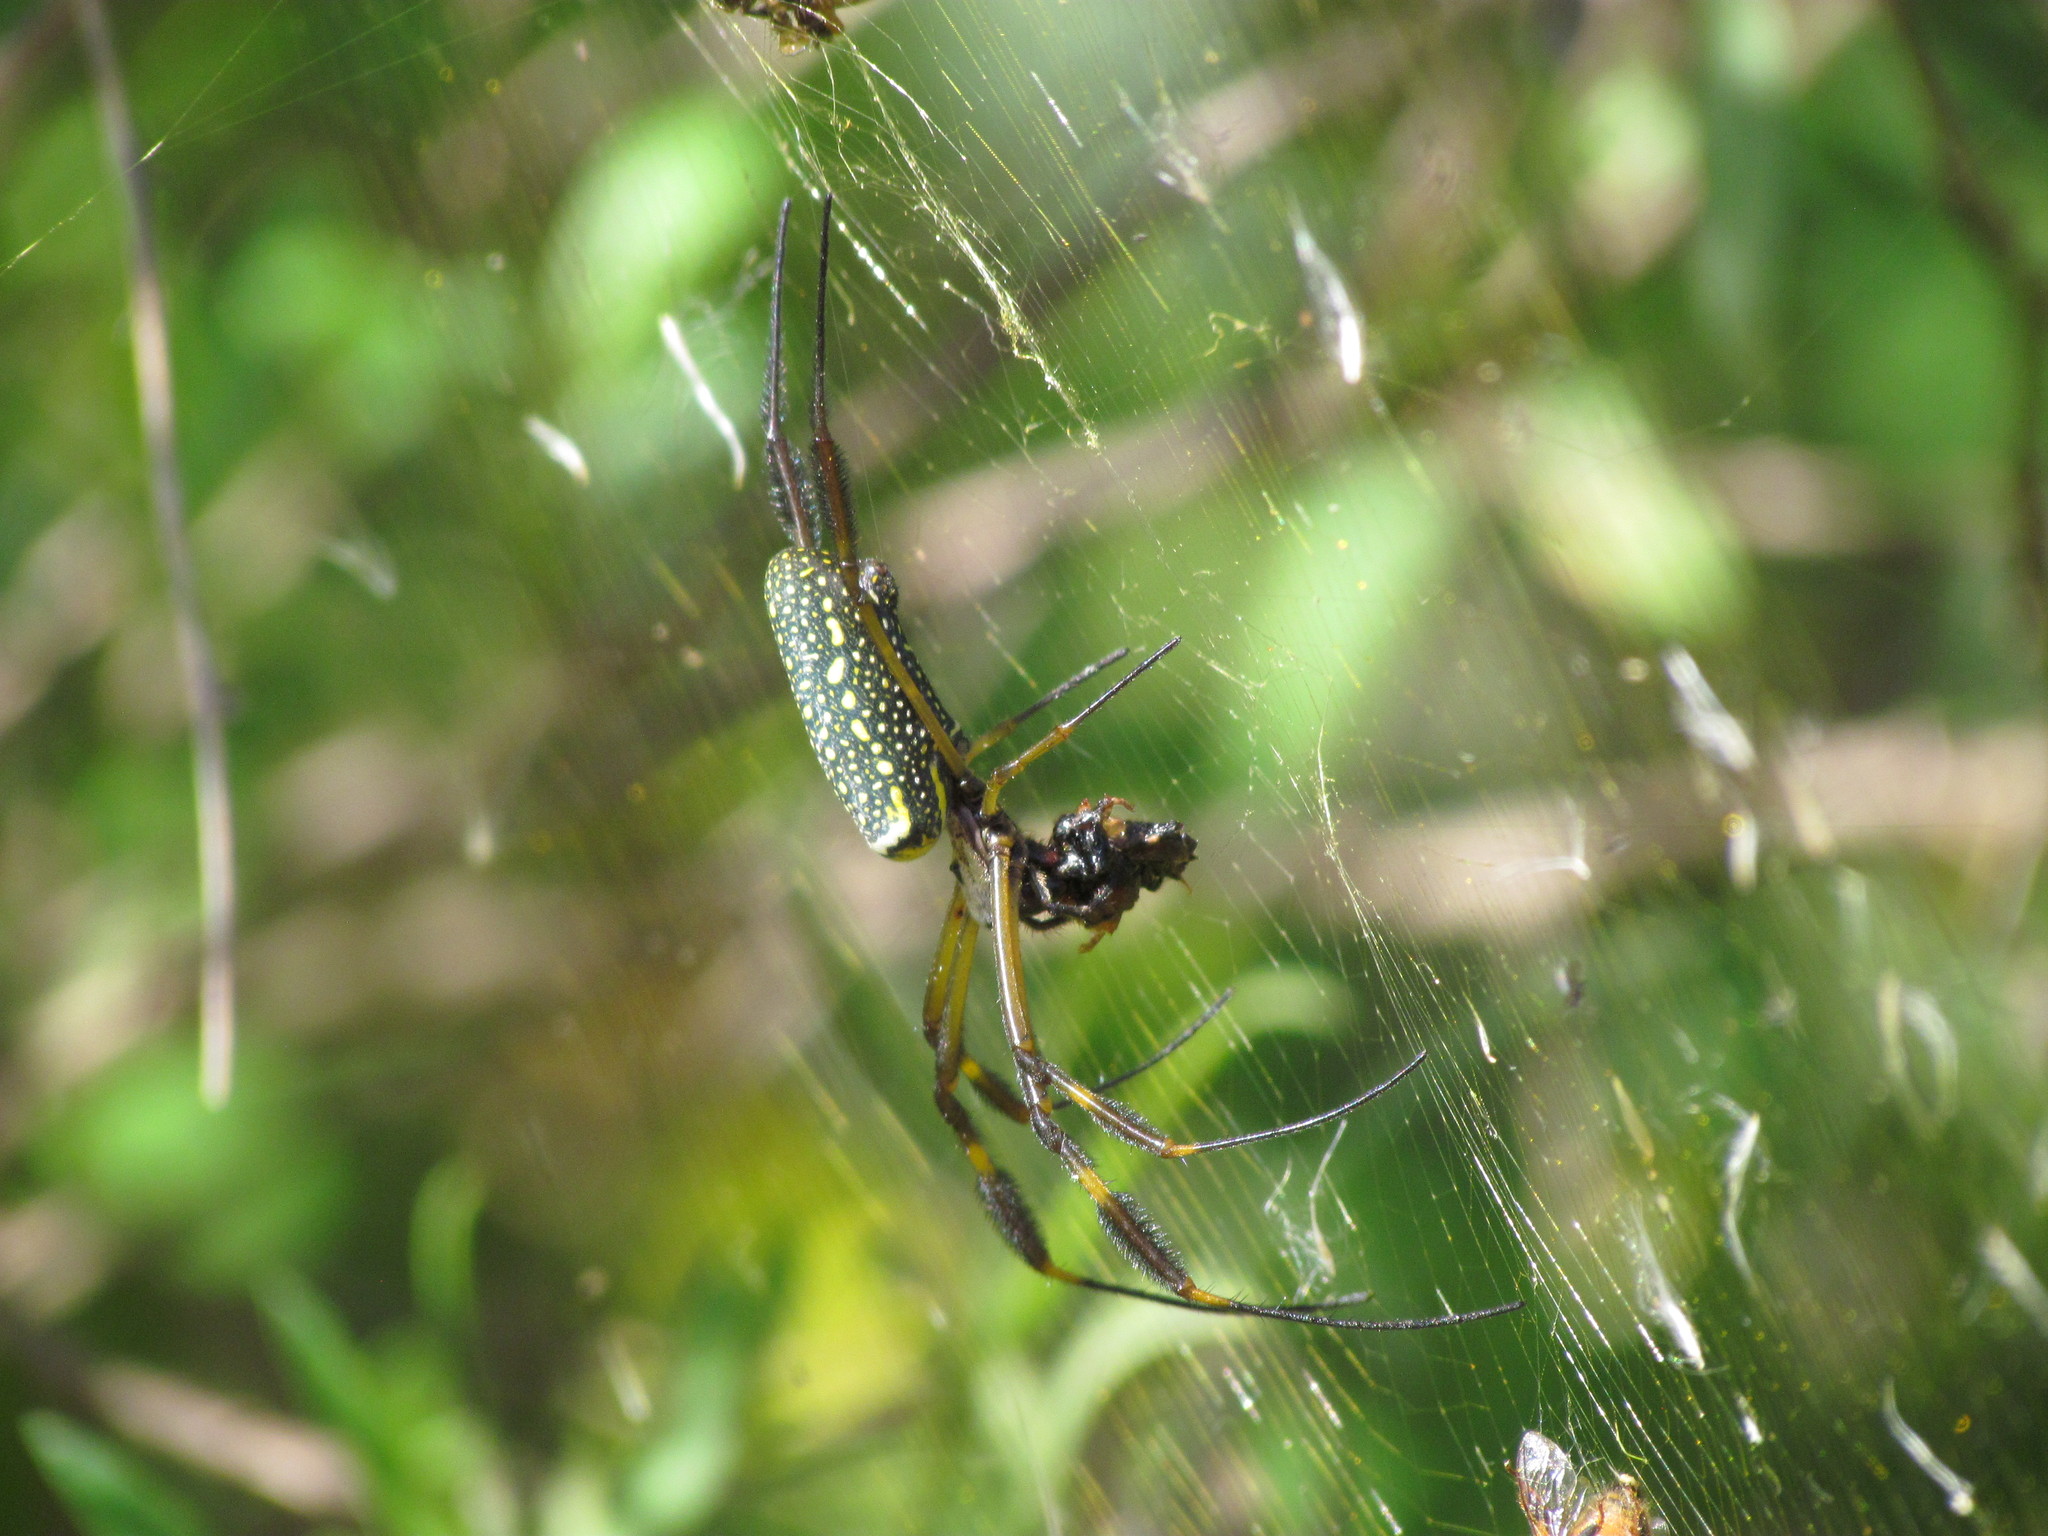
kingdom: Animalia
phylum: Arthropoda
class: Arachnida
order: Araneae
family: Araneidae
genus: Trichonephila
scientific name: Trichonephila clavipes
